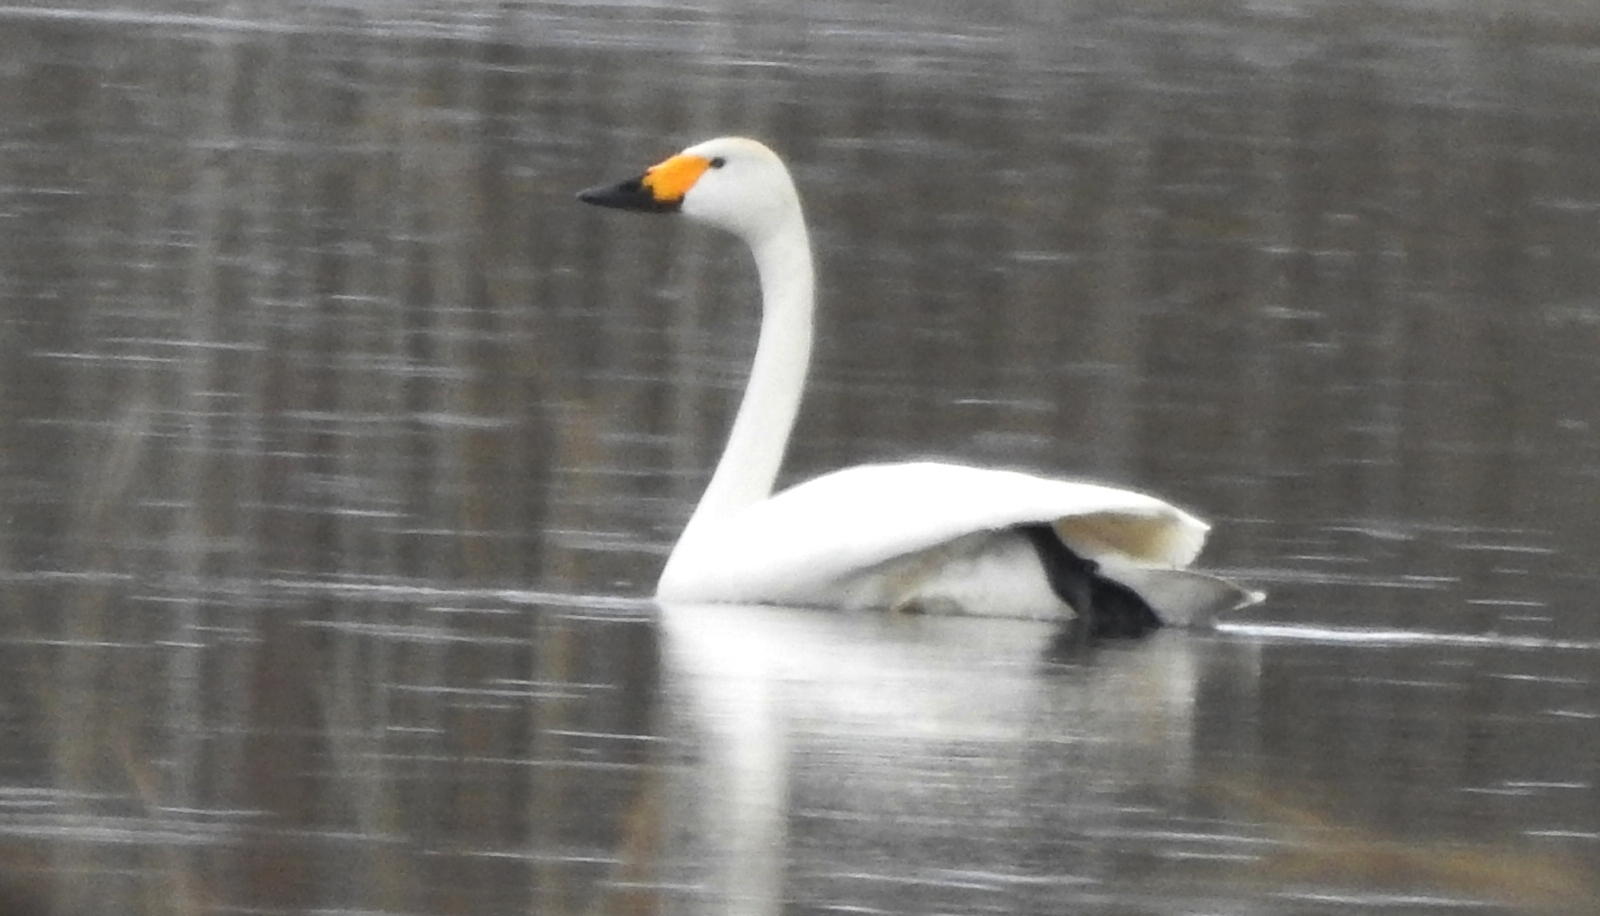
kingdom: Animalia
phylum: Chordata
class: Aves
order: Anseriformes
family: Anatidae
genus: Cygnus
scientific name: Cygnus cygnus
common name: Whooper swan
